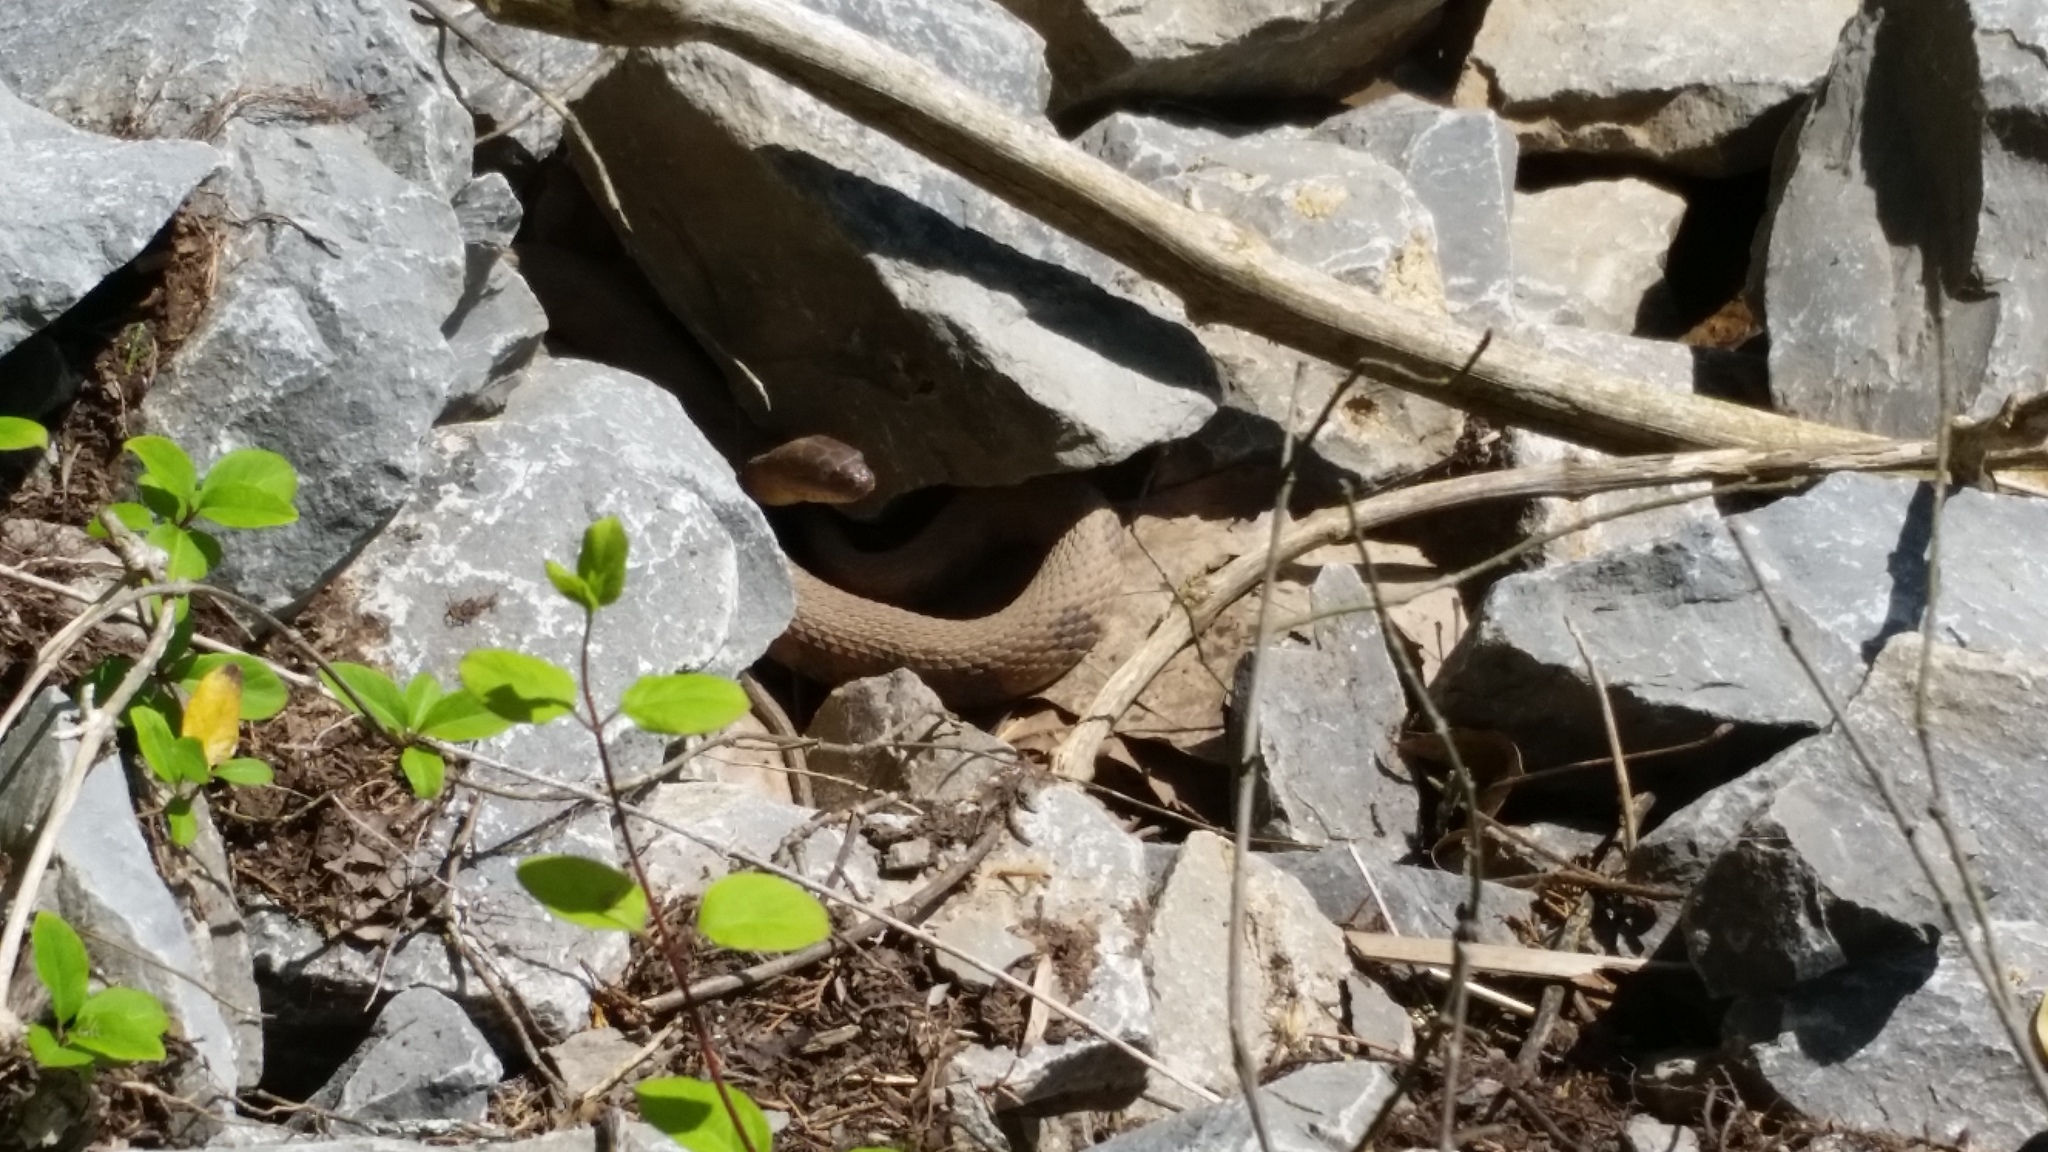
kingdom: Animalia
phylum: Chordata
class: Squamata
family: Colubridae
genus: Nerodia
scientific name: Nerodia sipedon
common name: Northern water snake
